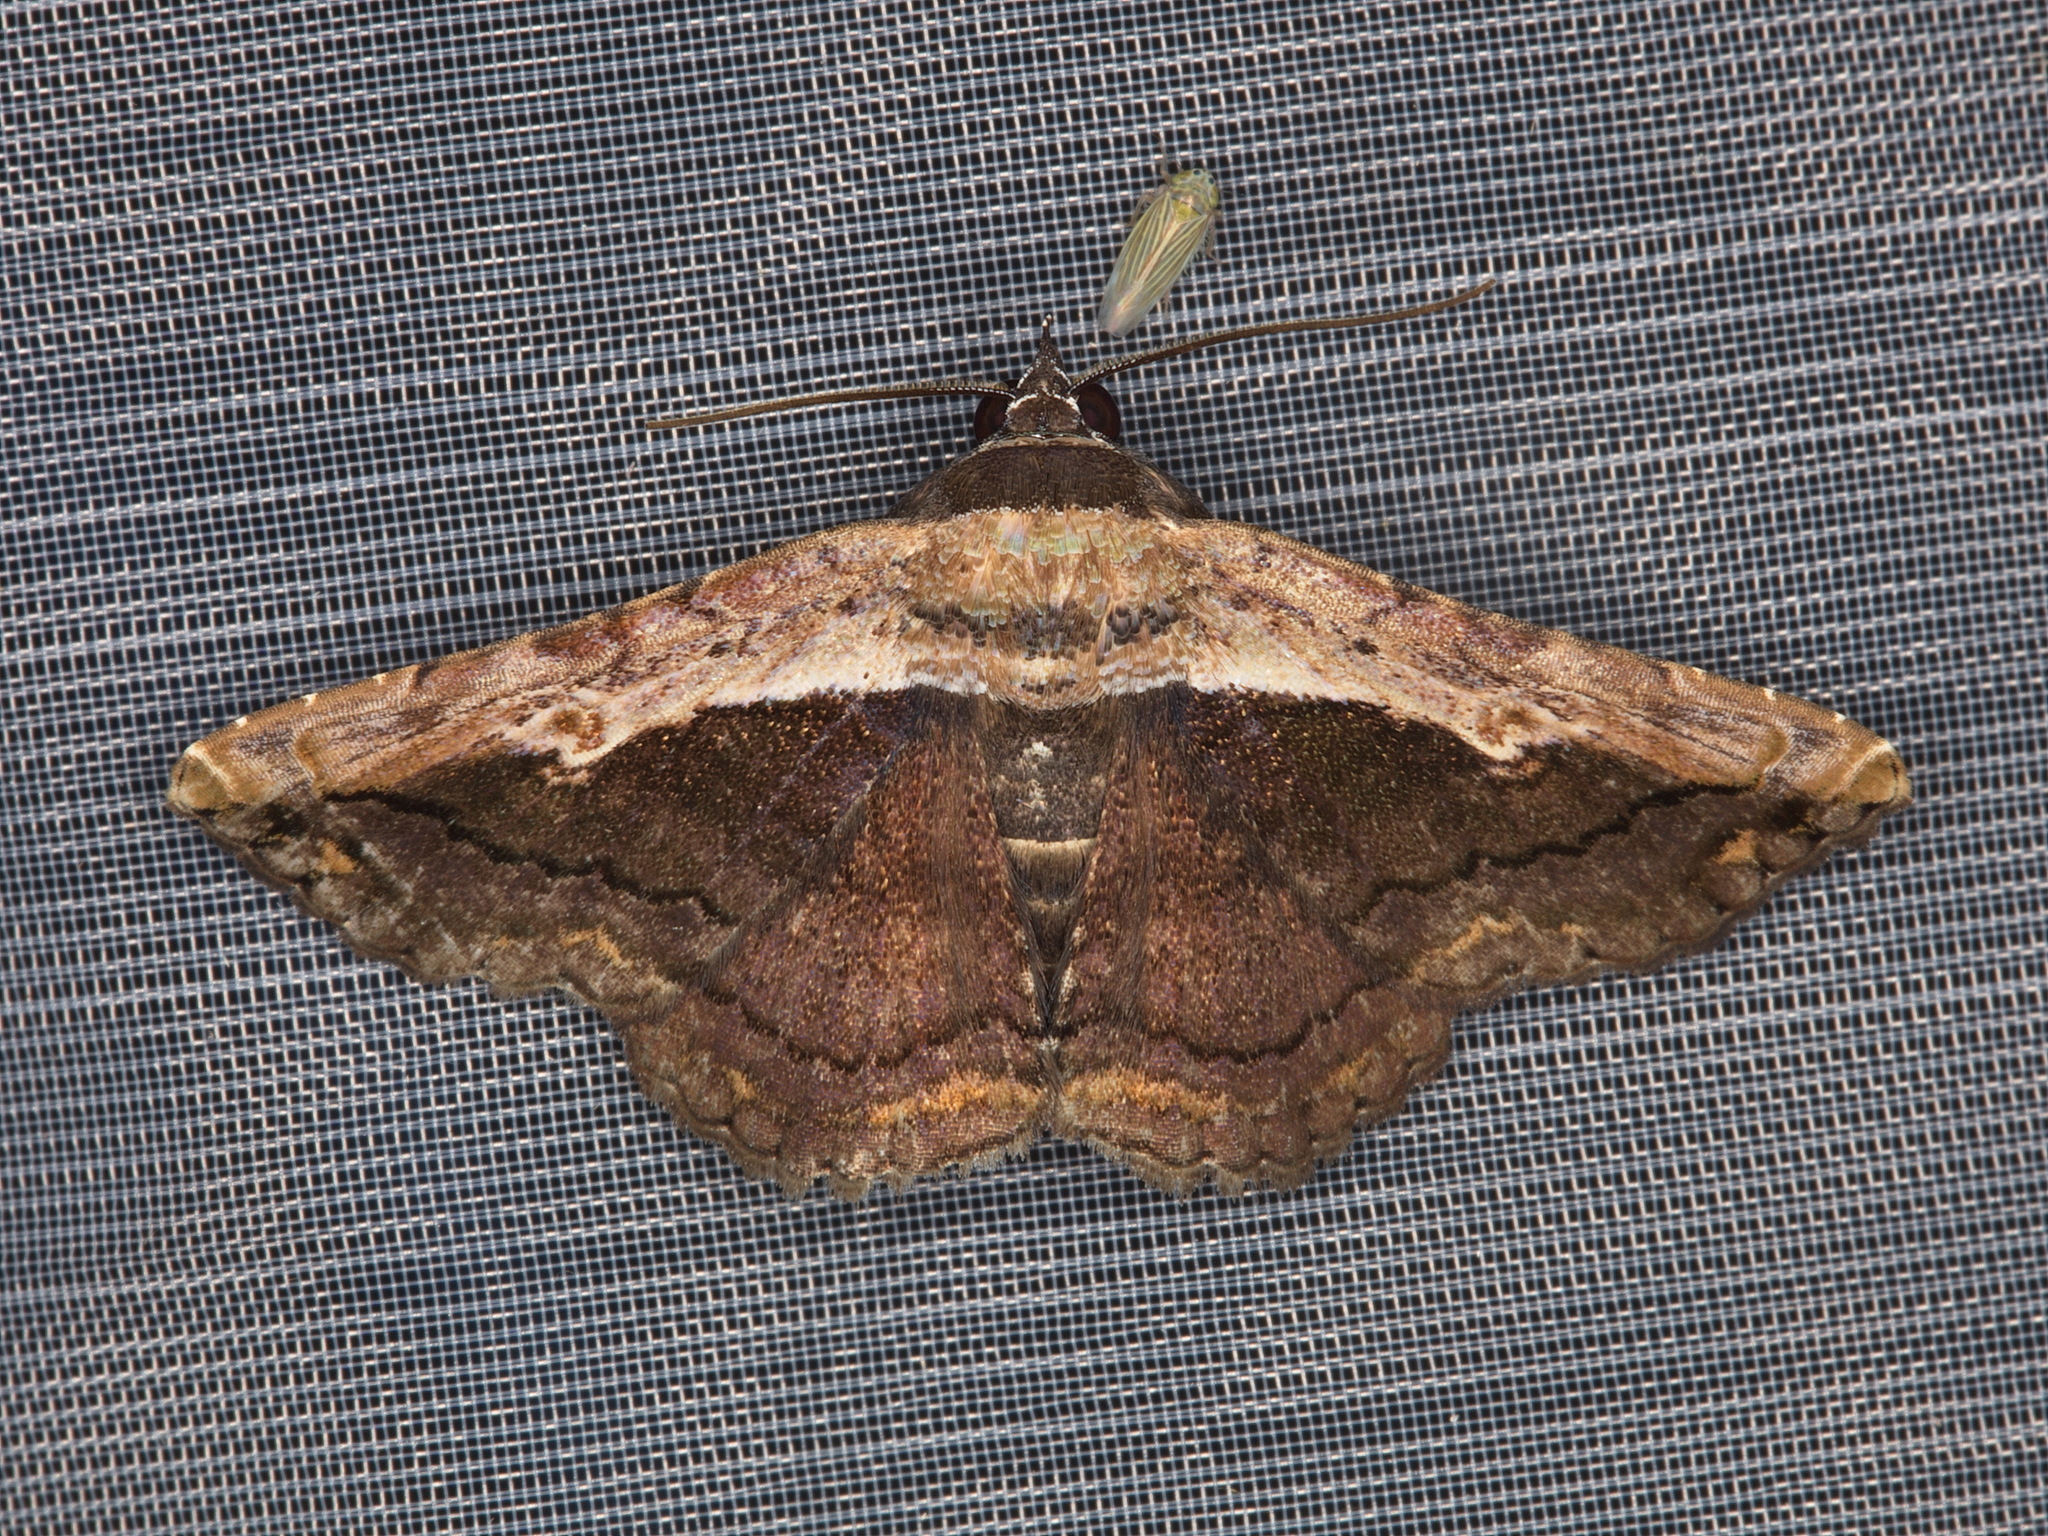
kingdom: Animalia
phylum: Arthropoda
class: Insecta
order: Lepidoptera
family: Erebidae
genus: Selenisa
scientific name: Selenisa sueroides
